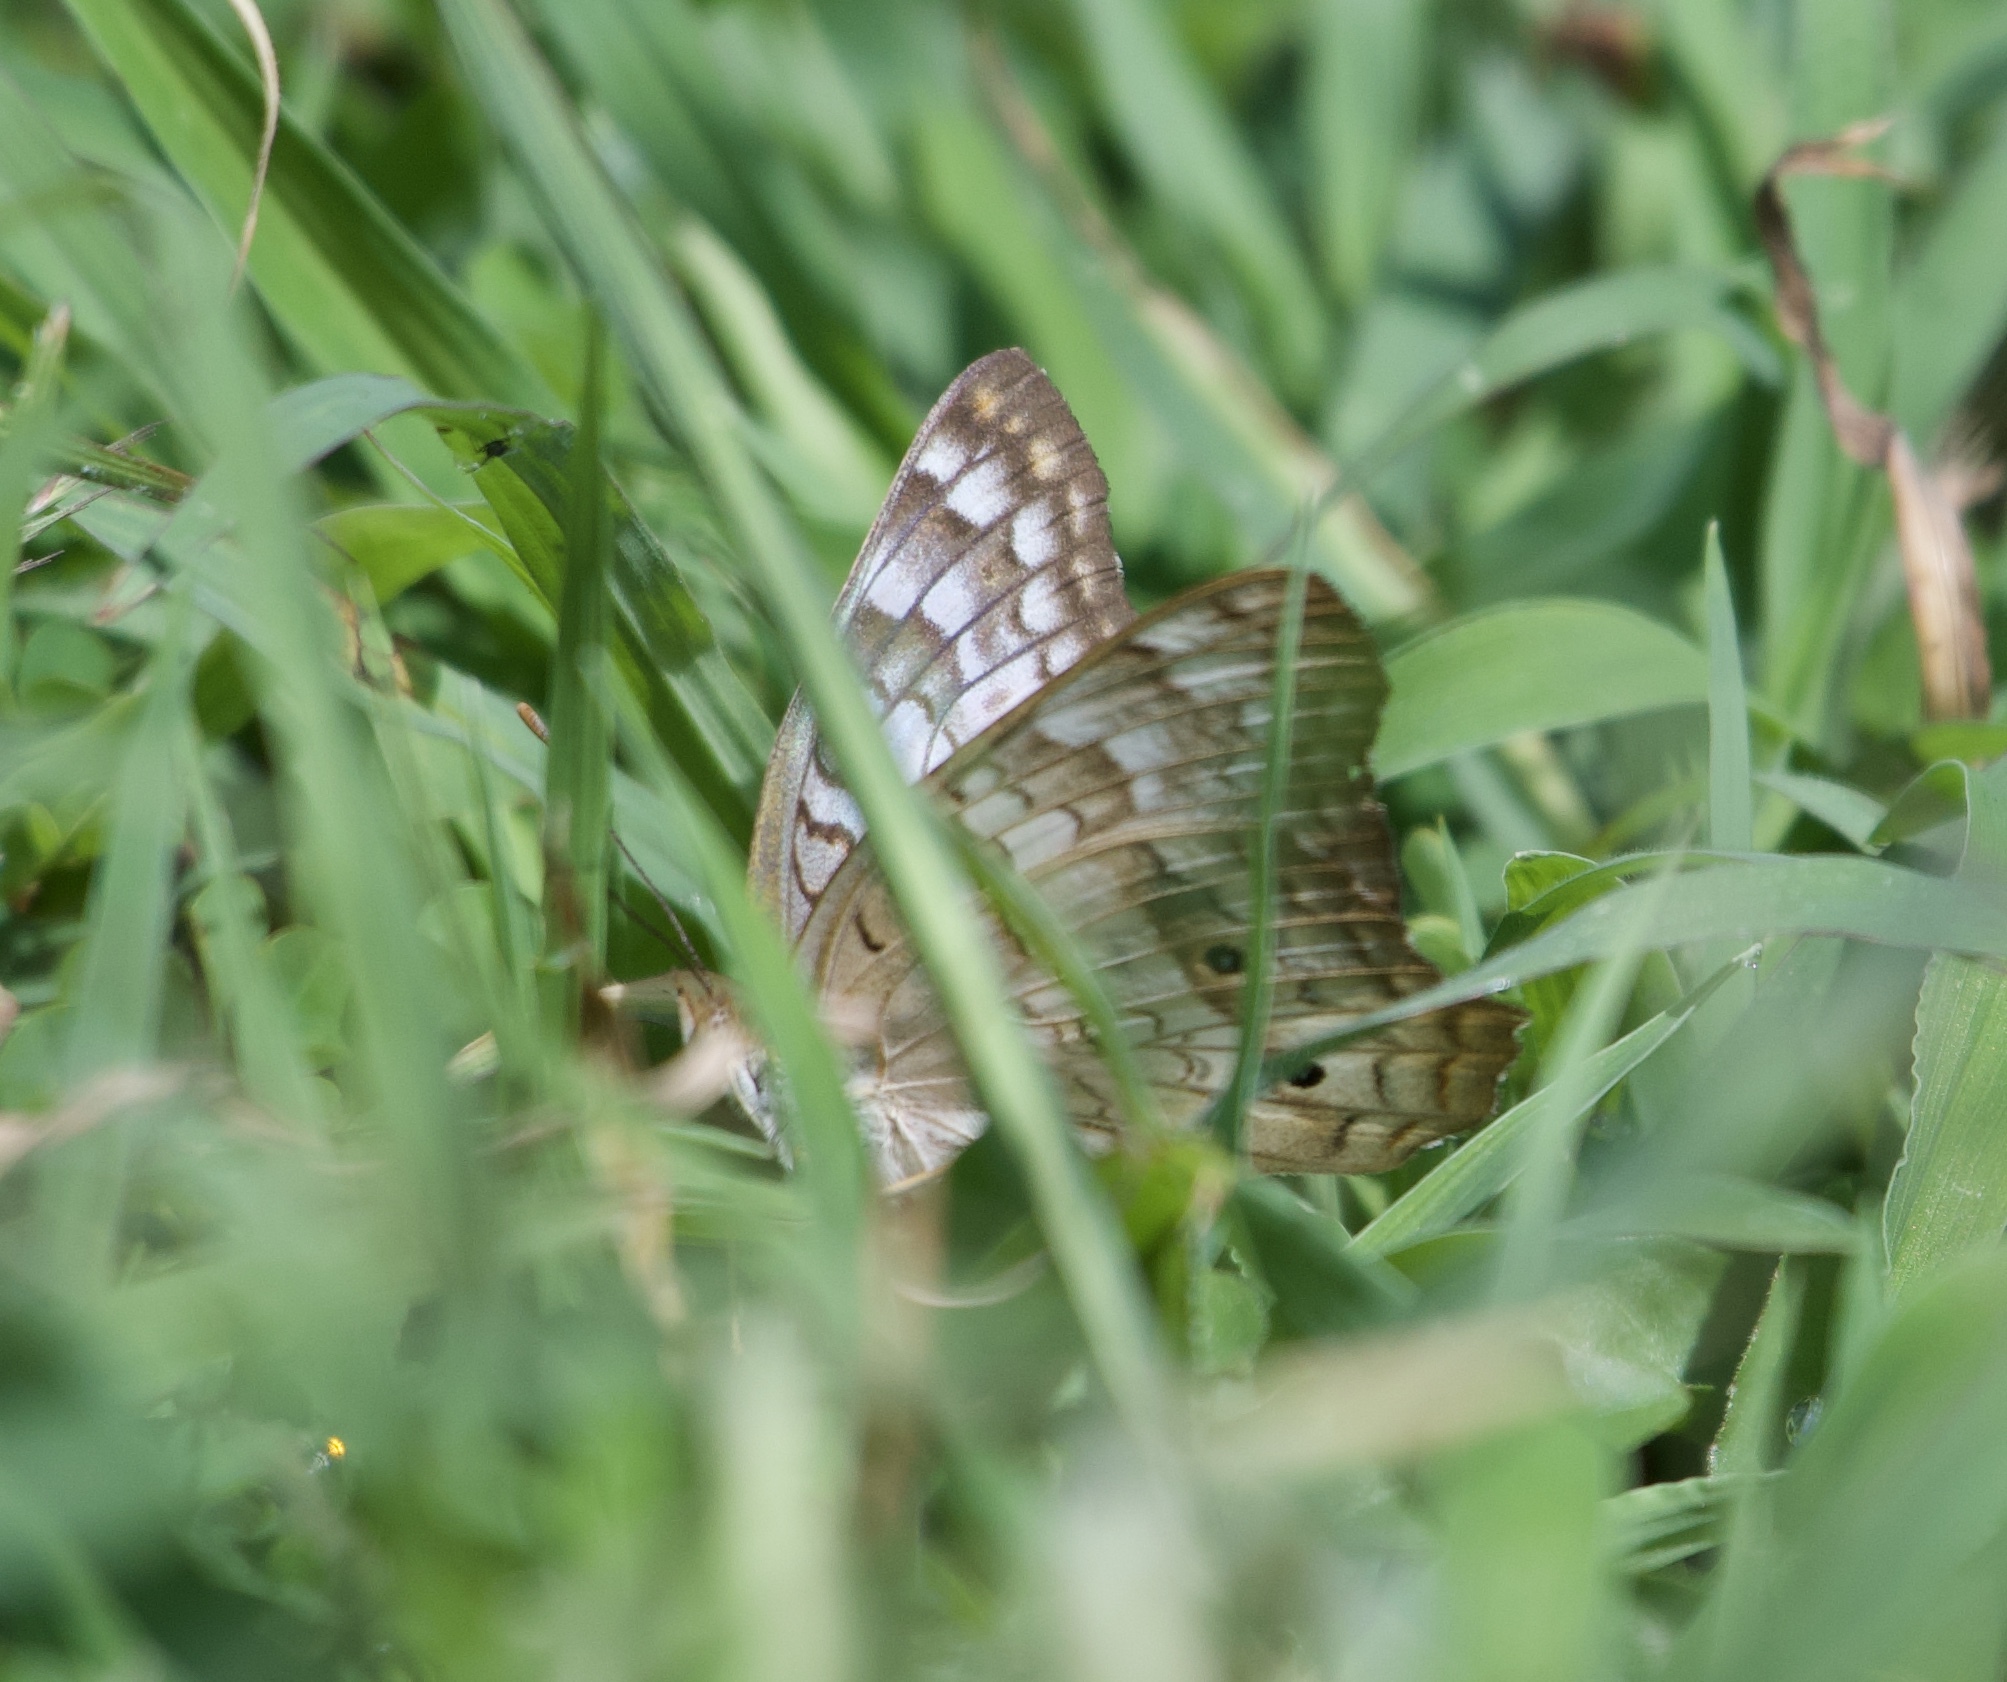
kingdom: Animalia
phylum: Arthropoda
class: Insecta
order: Lepidoptera
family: Nymphalidae
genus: Anartia
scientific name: Anartia jatrophae
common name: White peacock
